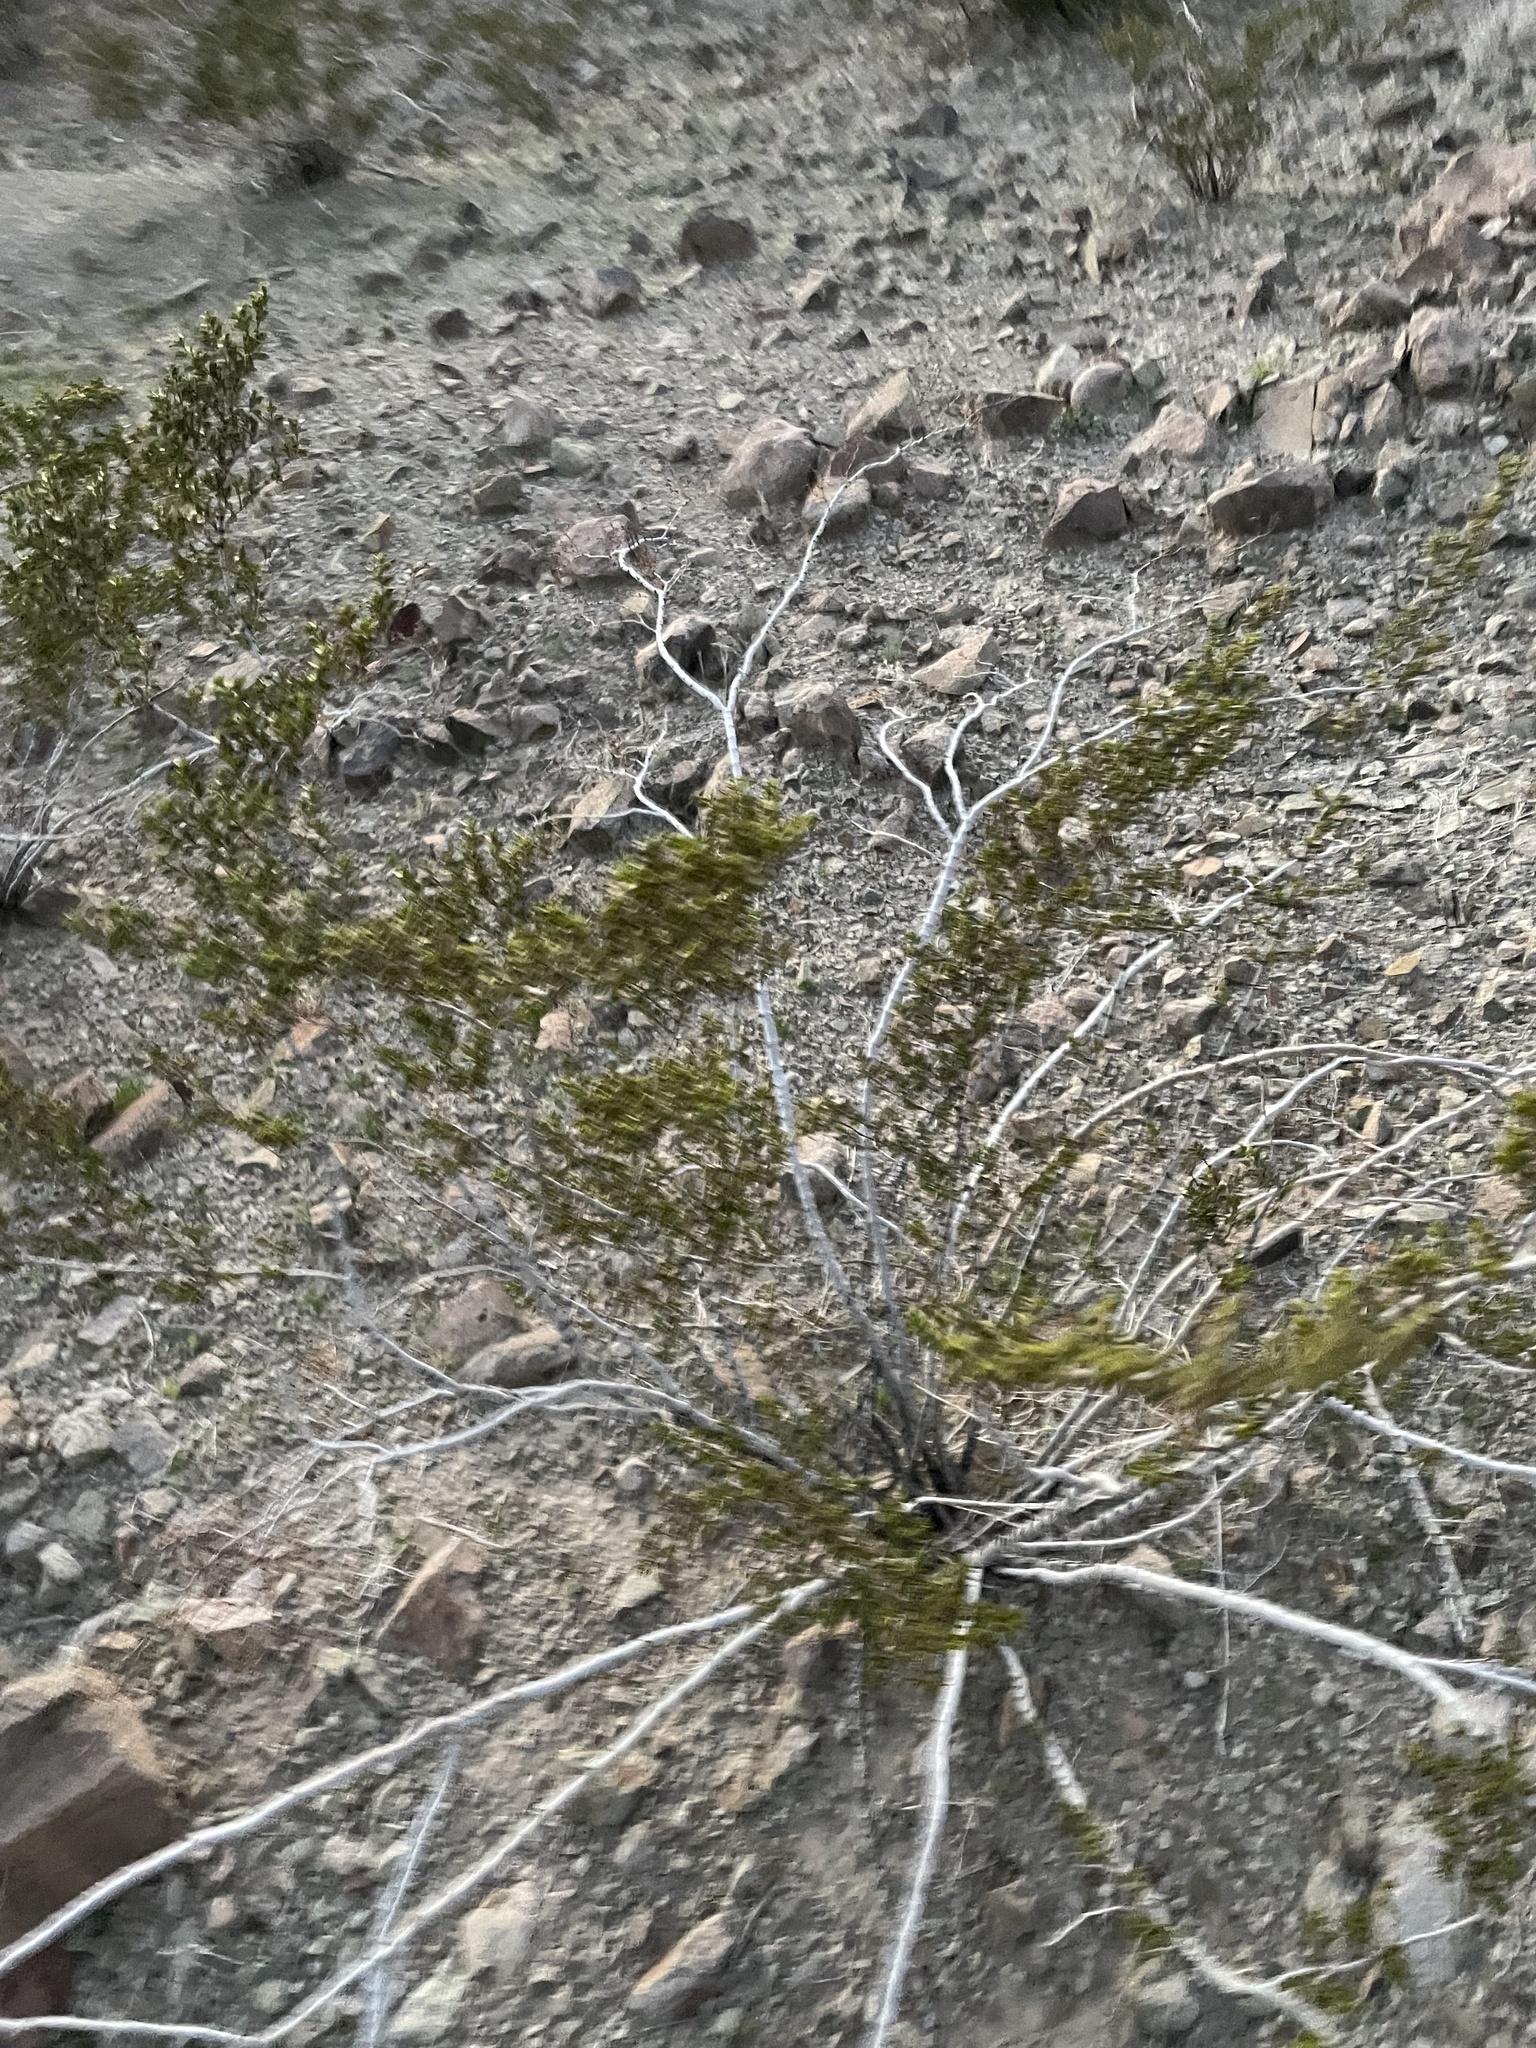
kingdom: Plantae
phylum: Tracheophyta
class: Magnoliopsida
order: Zygophyllales
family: Zygophyllaceae
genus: Larrea
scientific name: Larrea tridentata
